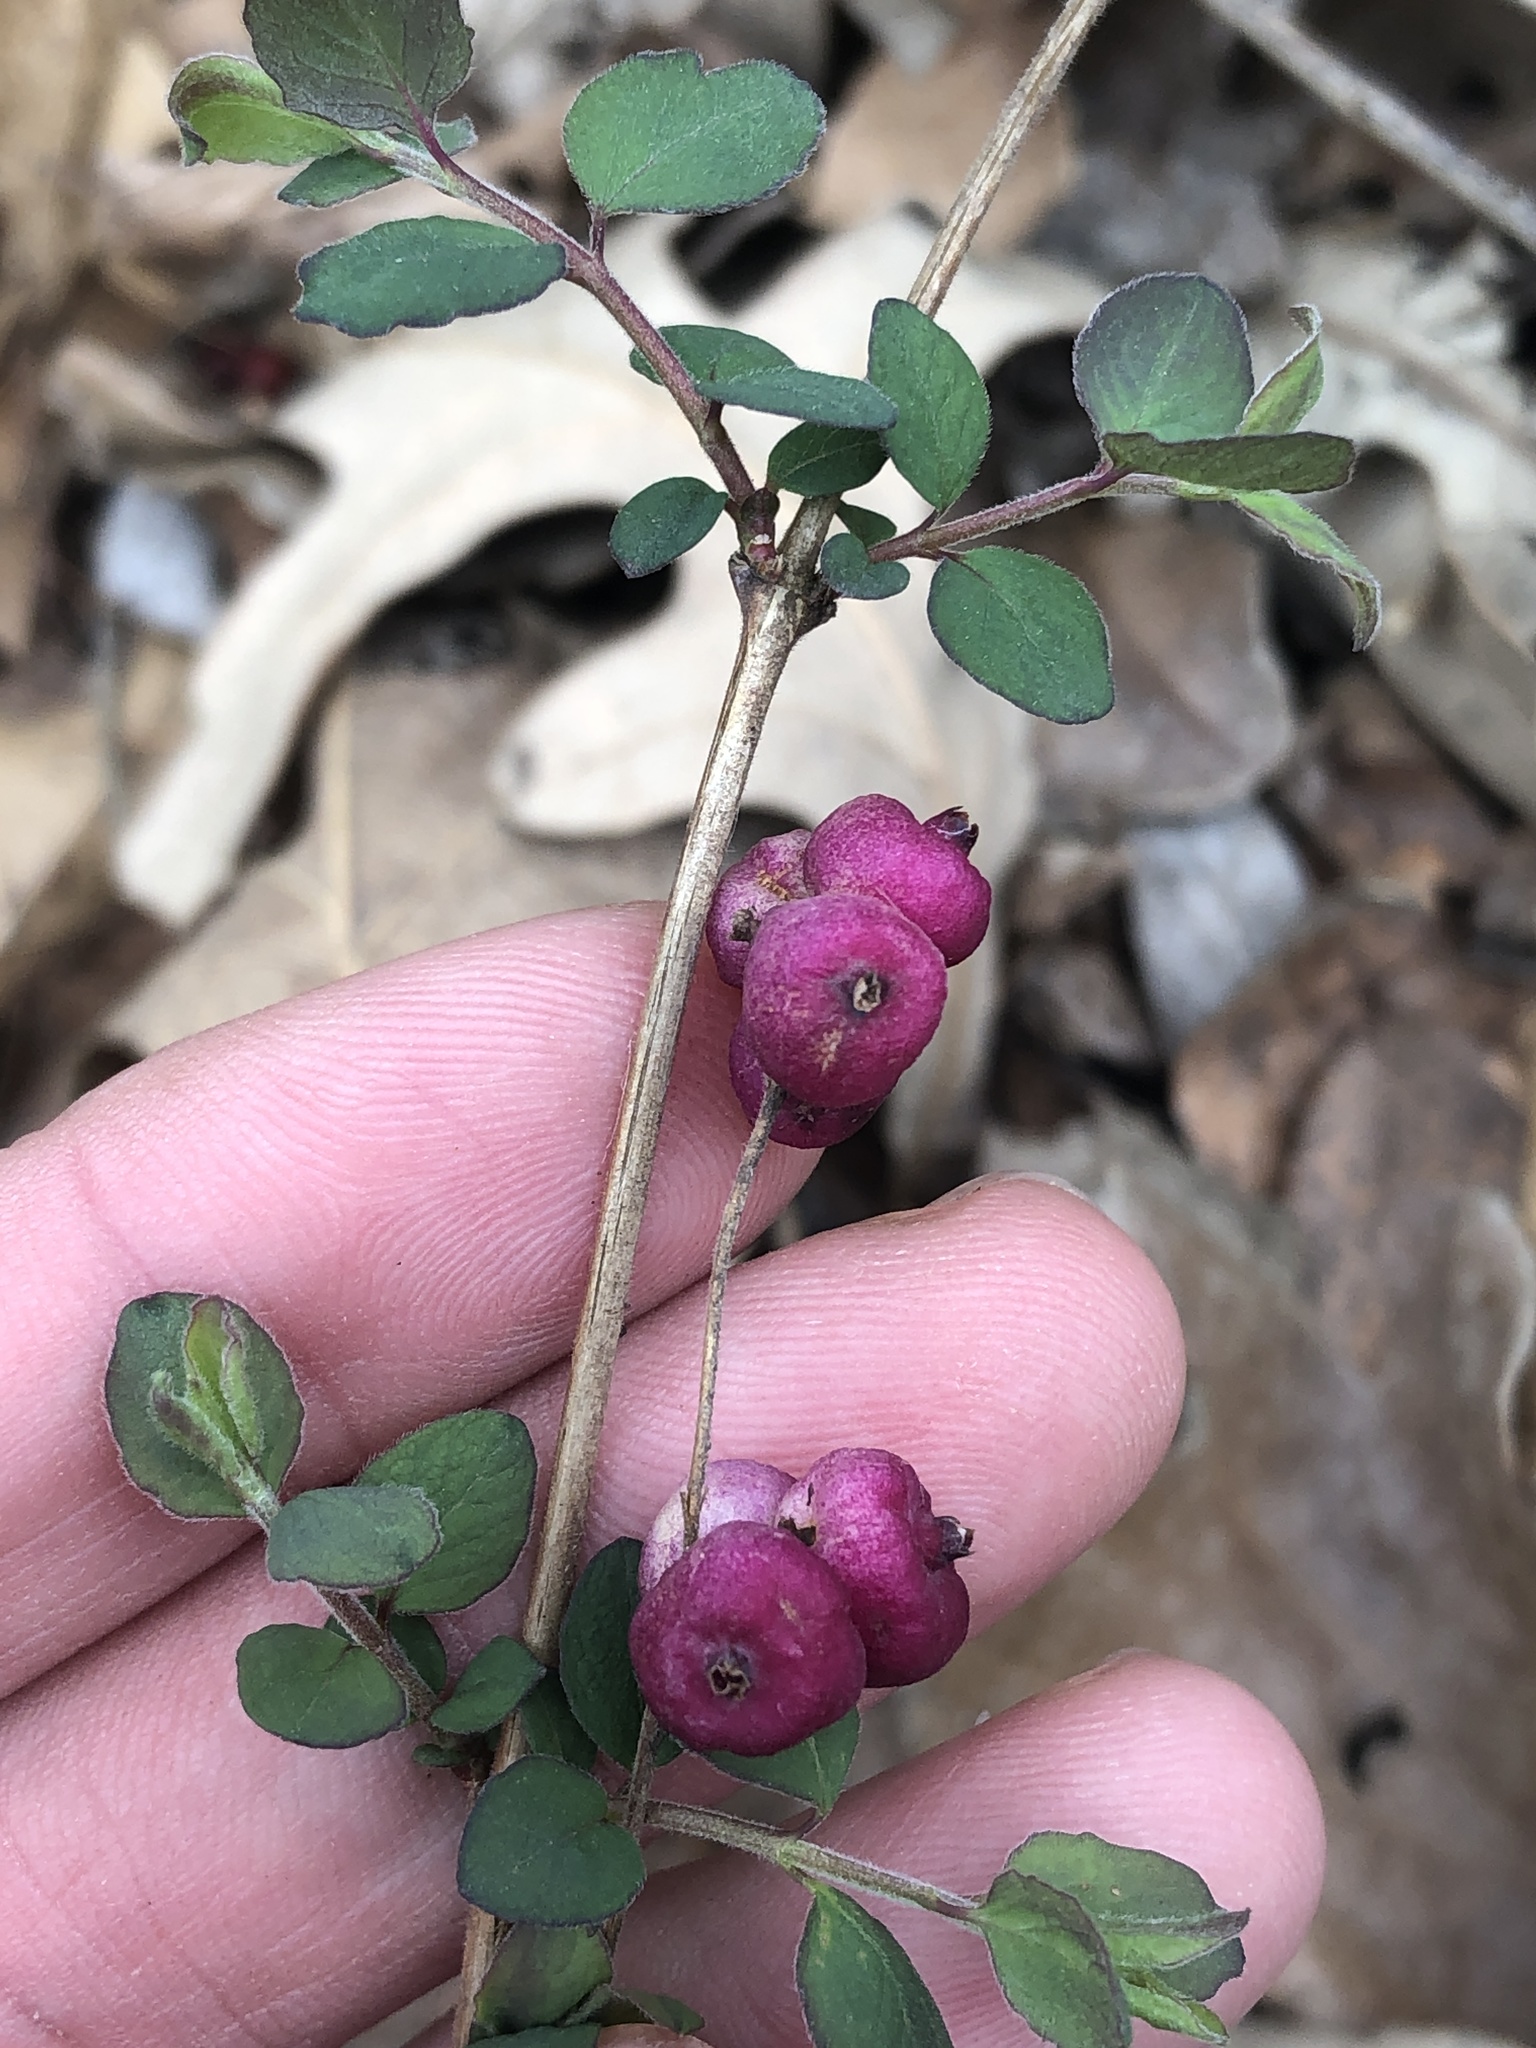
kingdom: Plantae
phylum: Tracheophyta
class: Magnoliopsida
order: Dipsacales
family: Caprifoliaceae
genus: Symphoricarpos
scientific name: Symphoricarpos orbiculatus
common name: Coralberry
